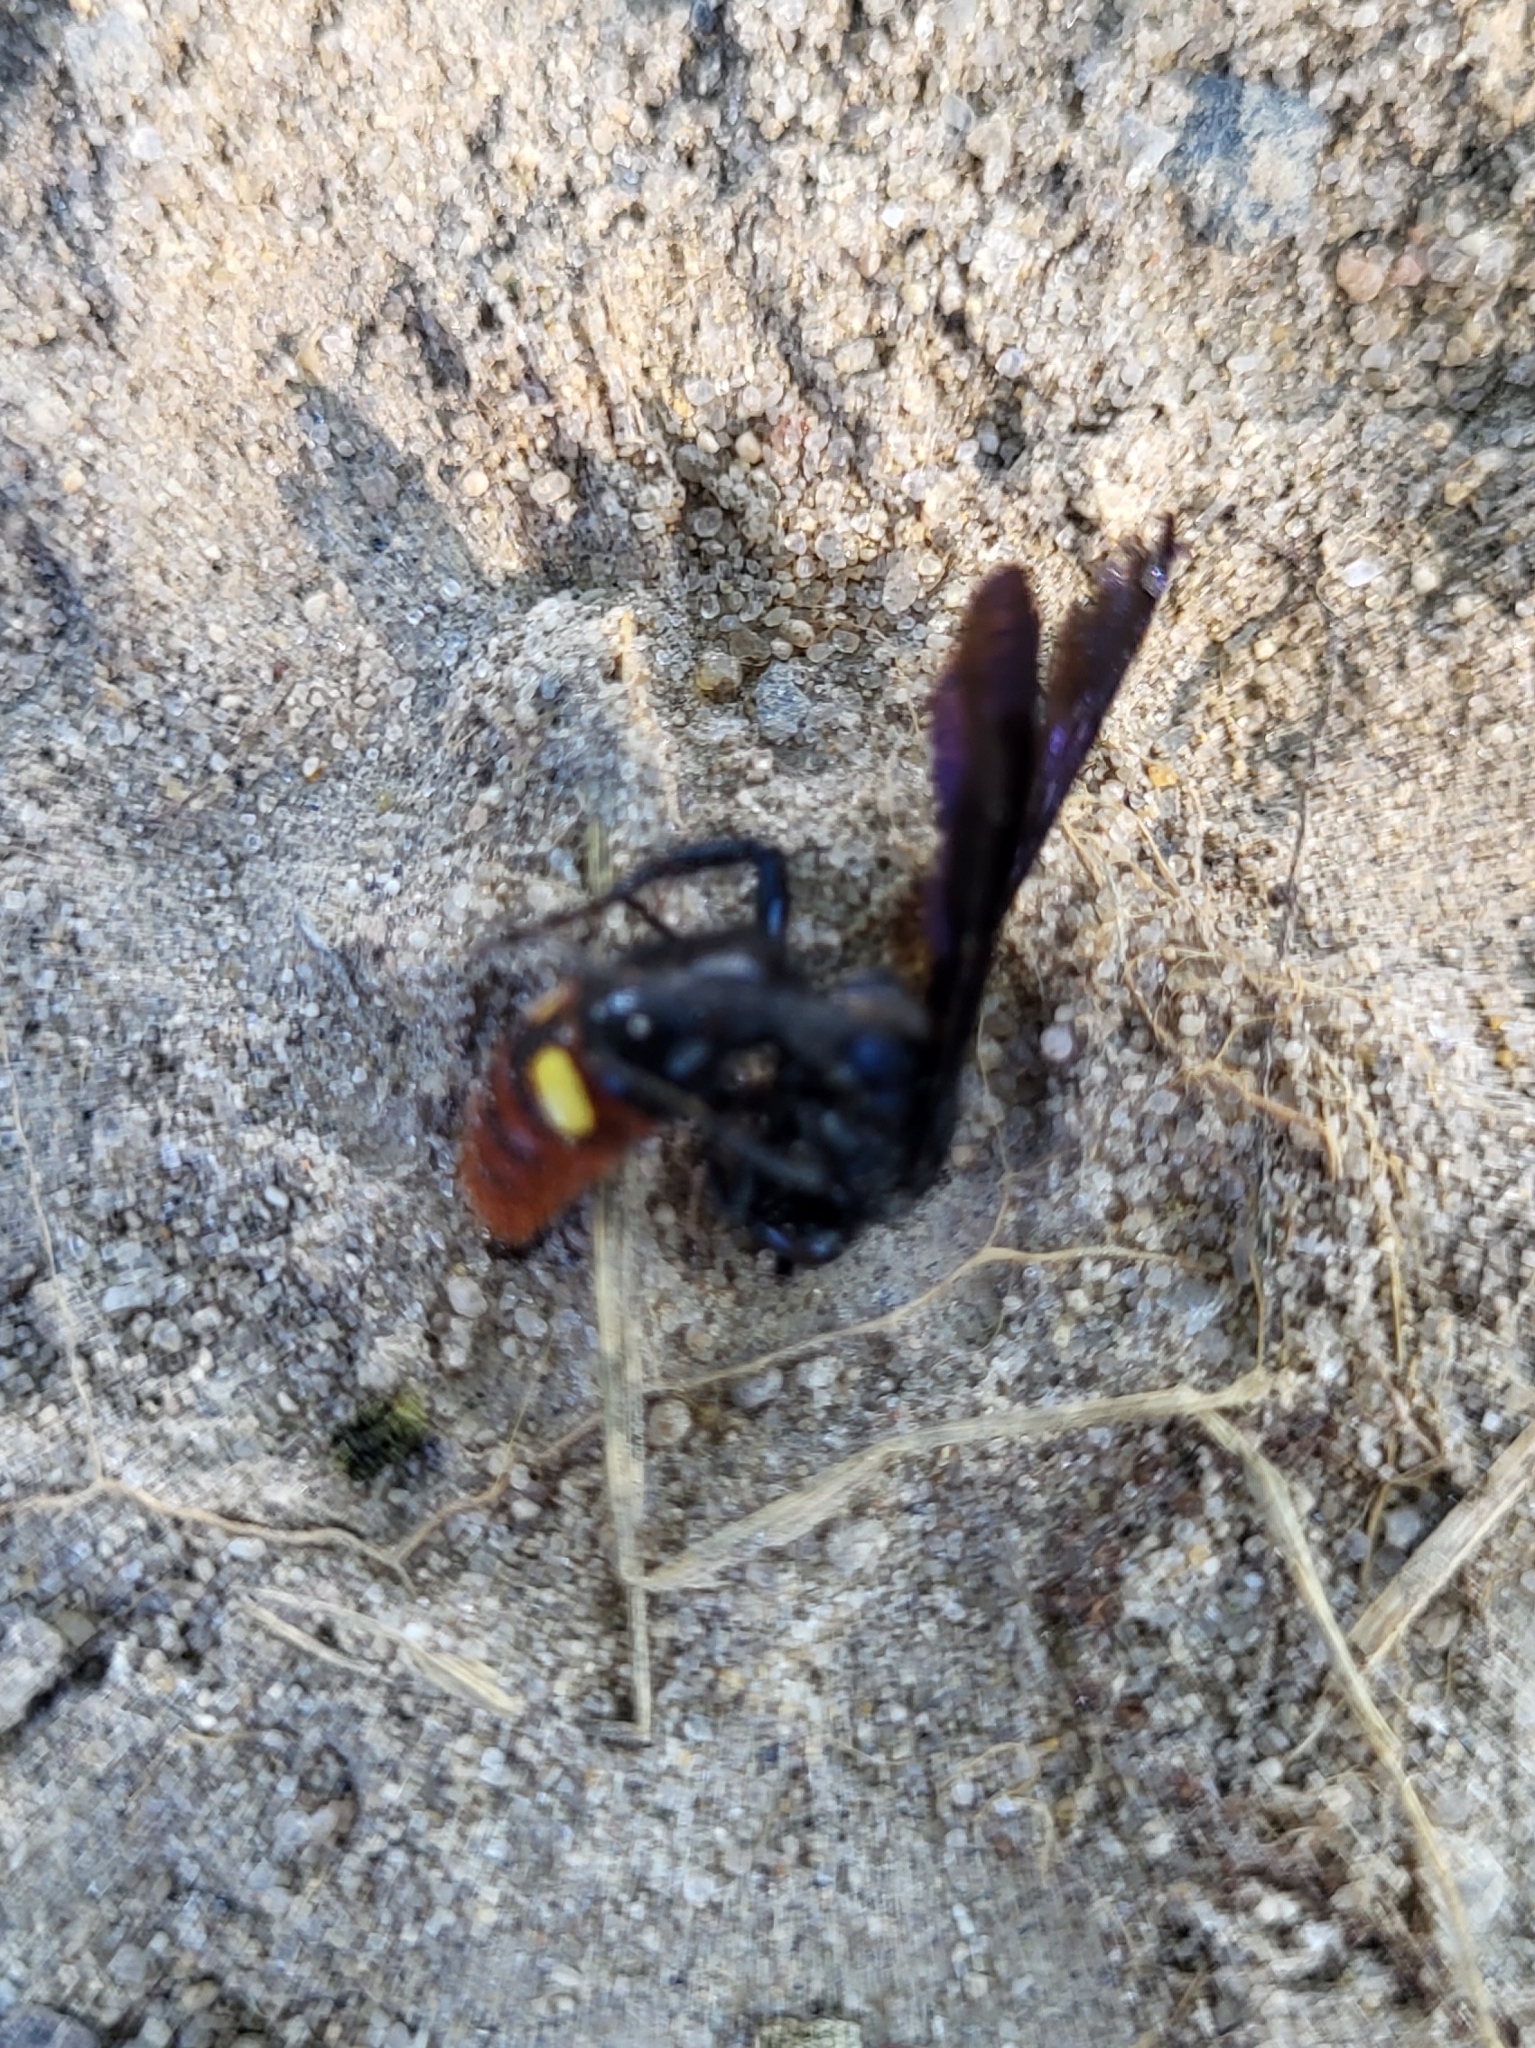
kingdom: Animalia
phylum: Arthropoda
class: Insecta
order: Hymenoptera
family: Scoliidae
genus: Scolia
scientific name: Scolia dubia
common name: Blue-winged scoliid wasp
